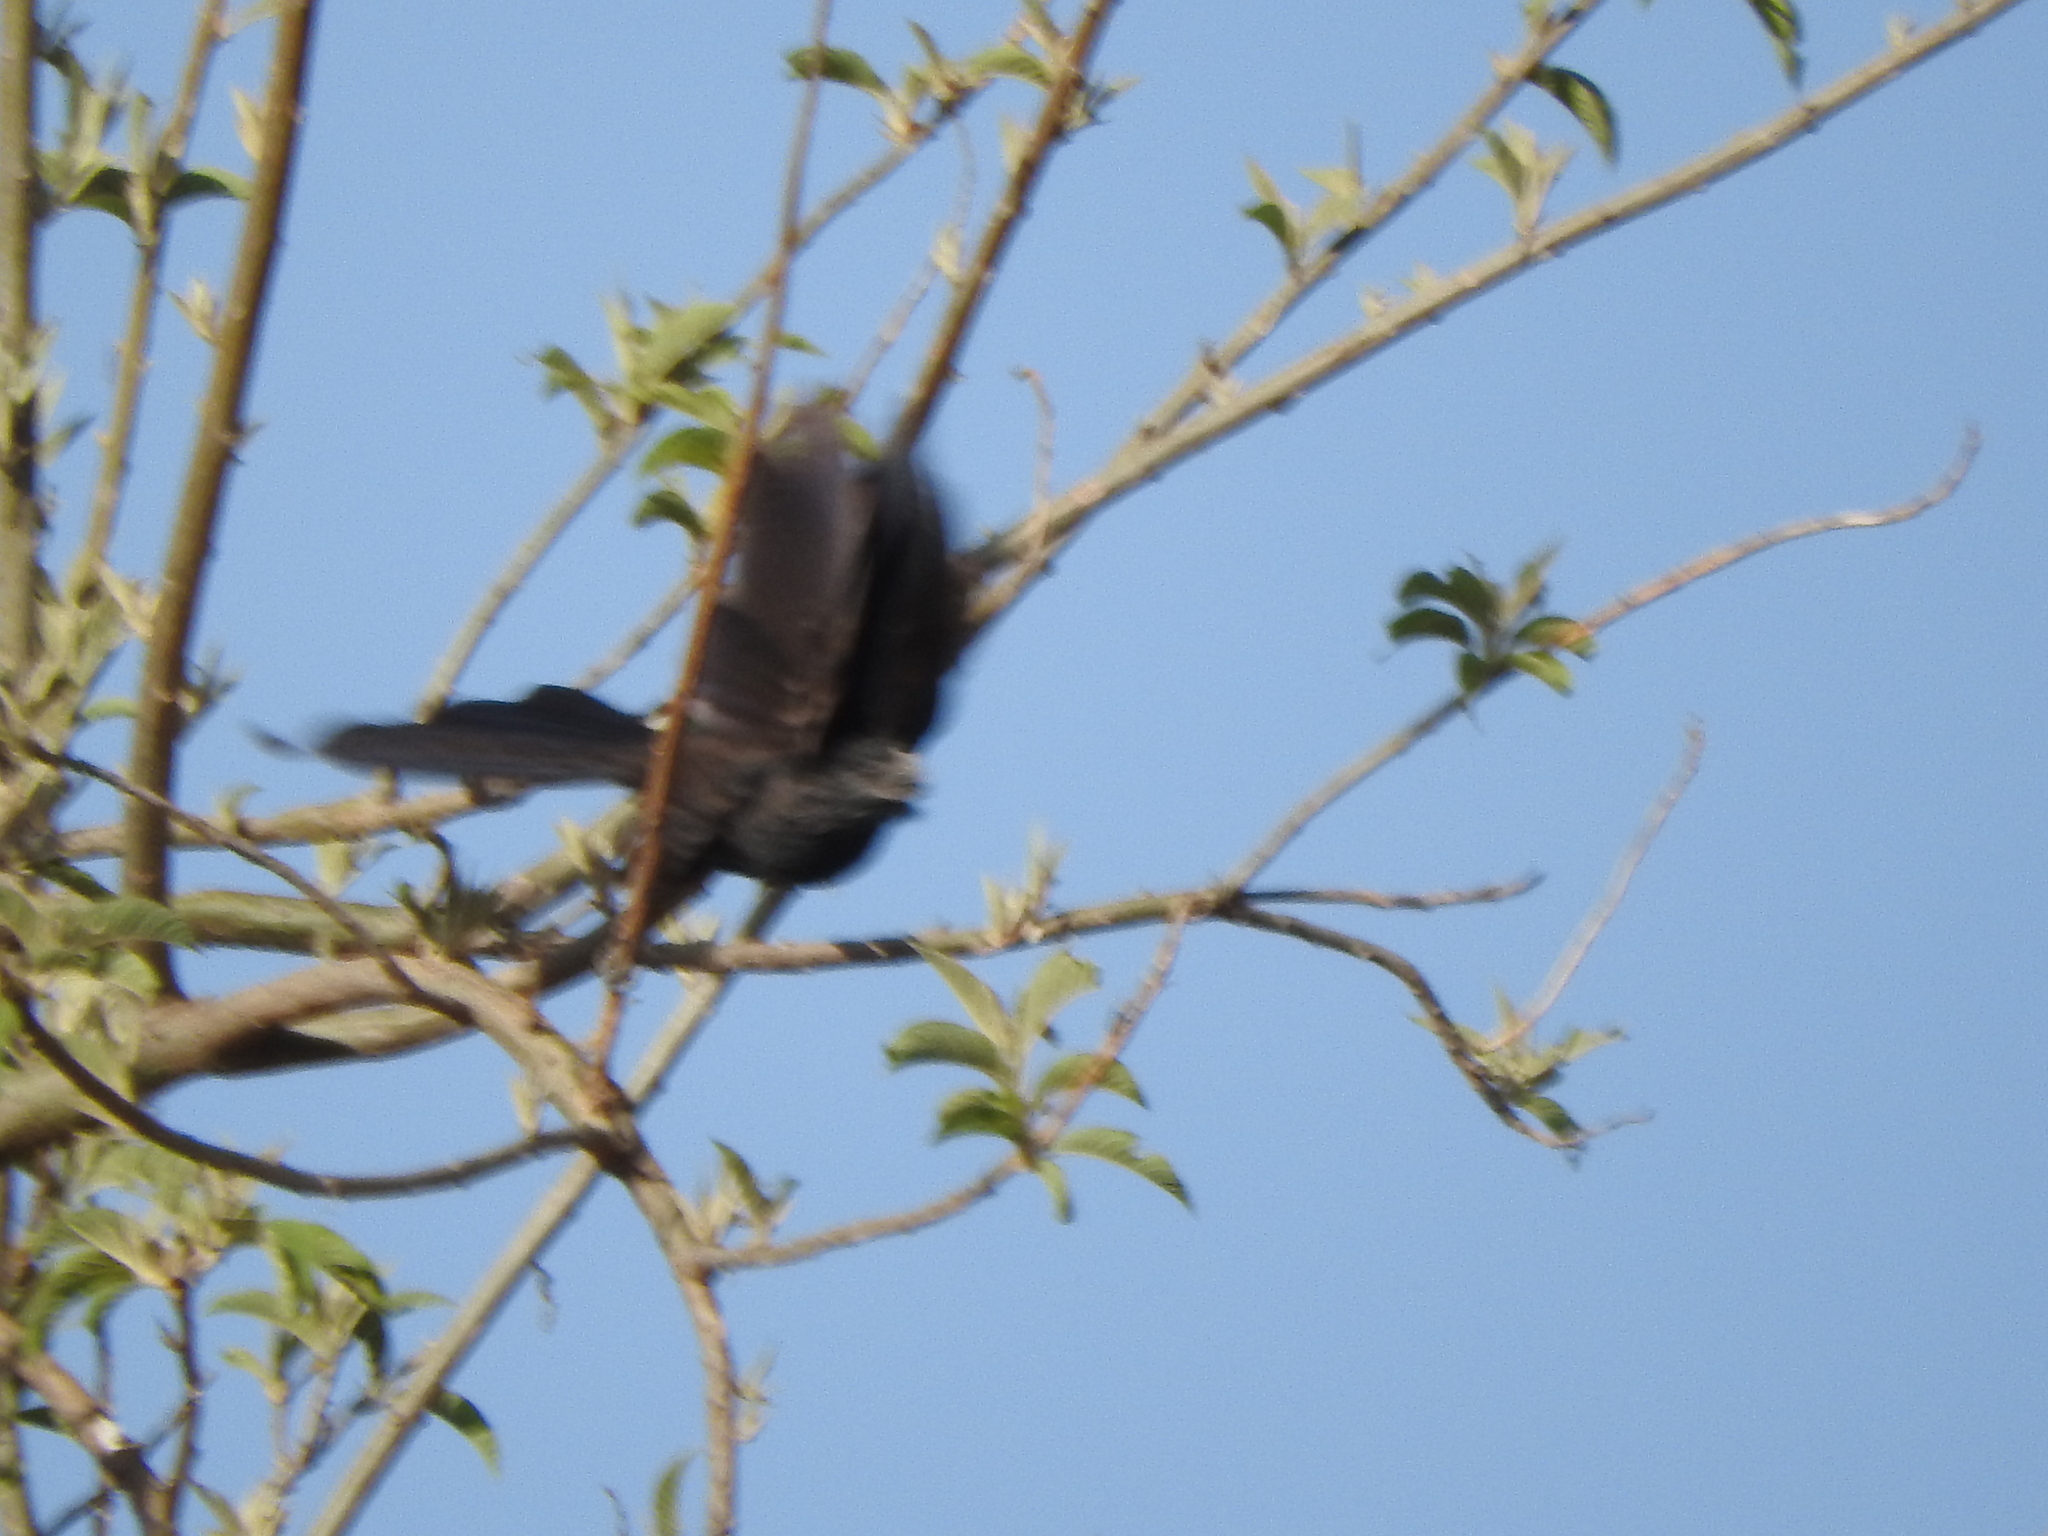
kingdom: Animalia
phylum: Chordata
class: Aves
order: Cuculiformes
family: Cuculidae
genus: Crotophaga
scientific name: Crotophaga sulcirostris
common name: Groove-billed ani
